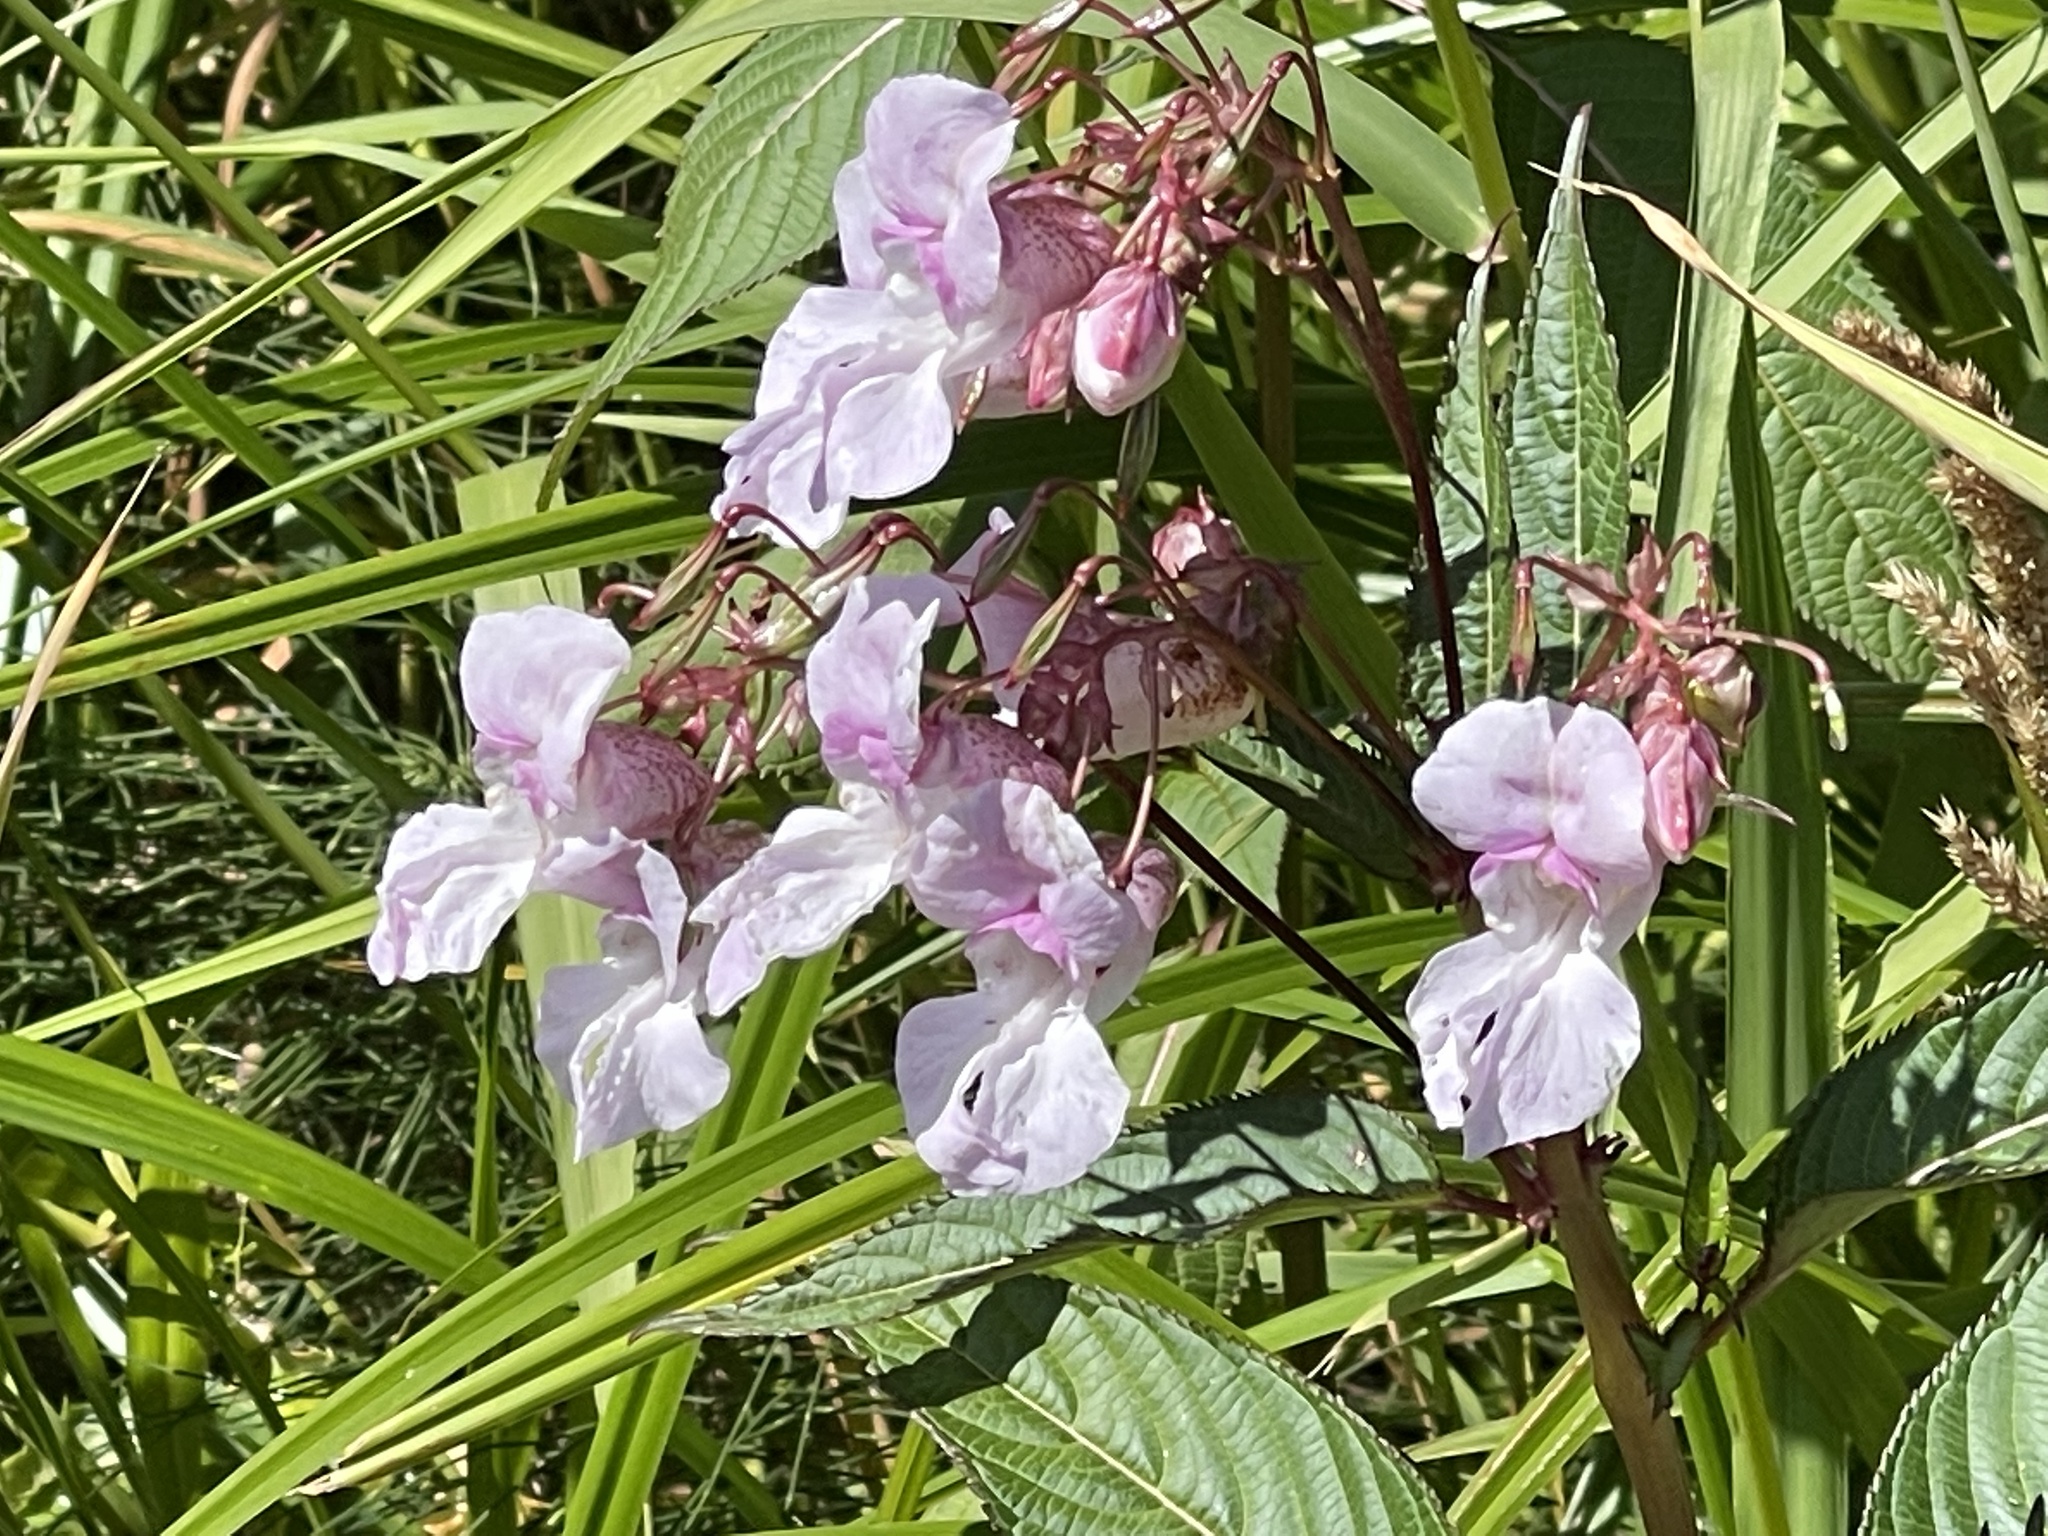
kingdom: Plantae
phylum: Tracheophyta
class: Magnoliopsida
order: Ericales
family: Balsaminaceae
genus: Impatiens
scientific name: Impatiens glandulifera
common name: Himalayan balsam
